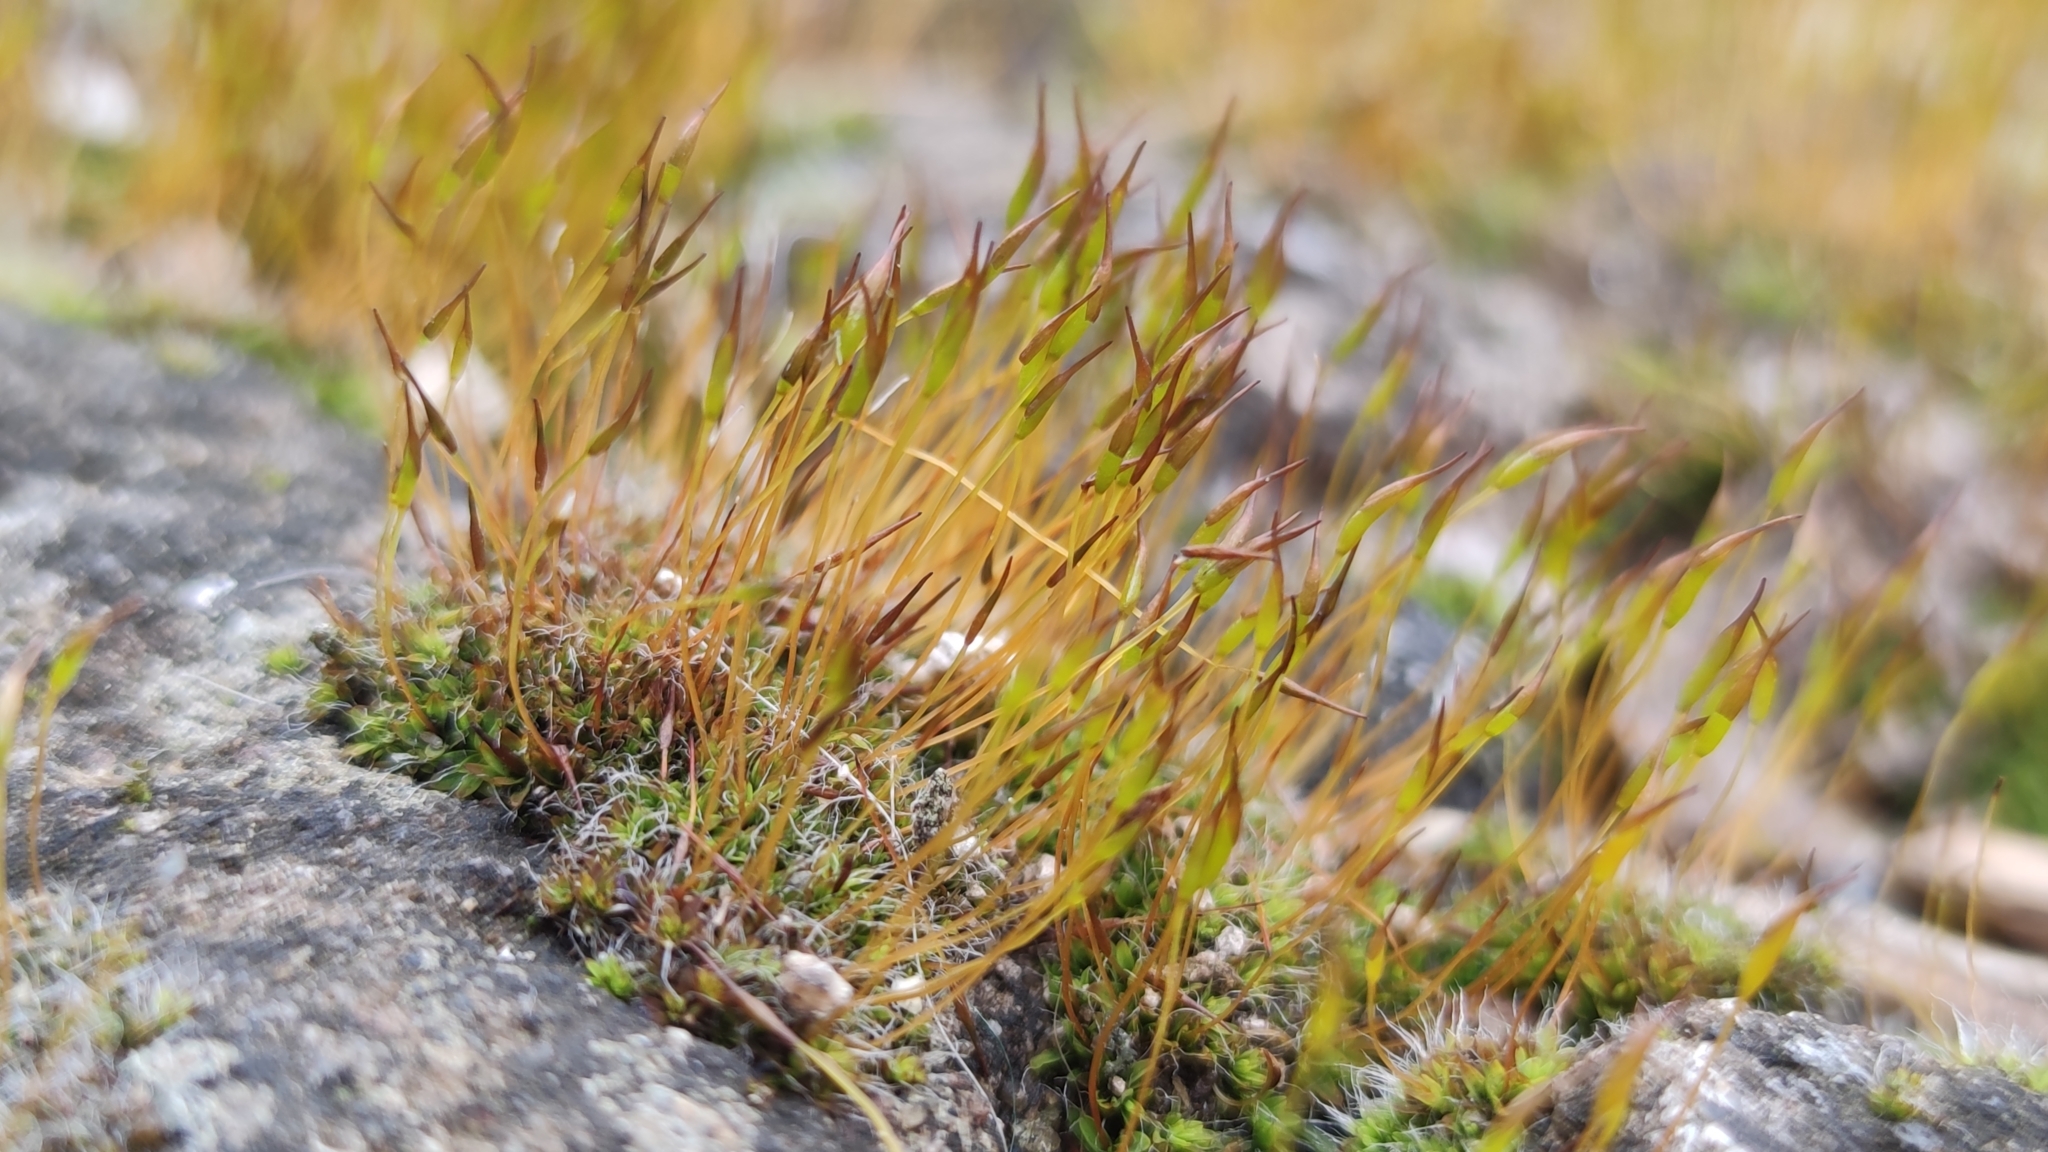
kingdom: Plantae
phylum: Bryophyta
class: Bryopsida
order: Pottiales
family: Pottiaceae
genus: Tortula
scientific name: Tortula muralis
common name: Wall screw-moss
